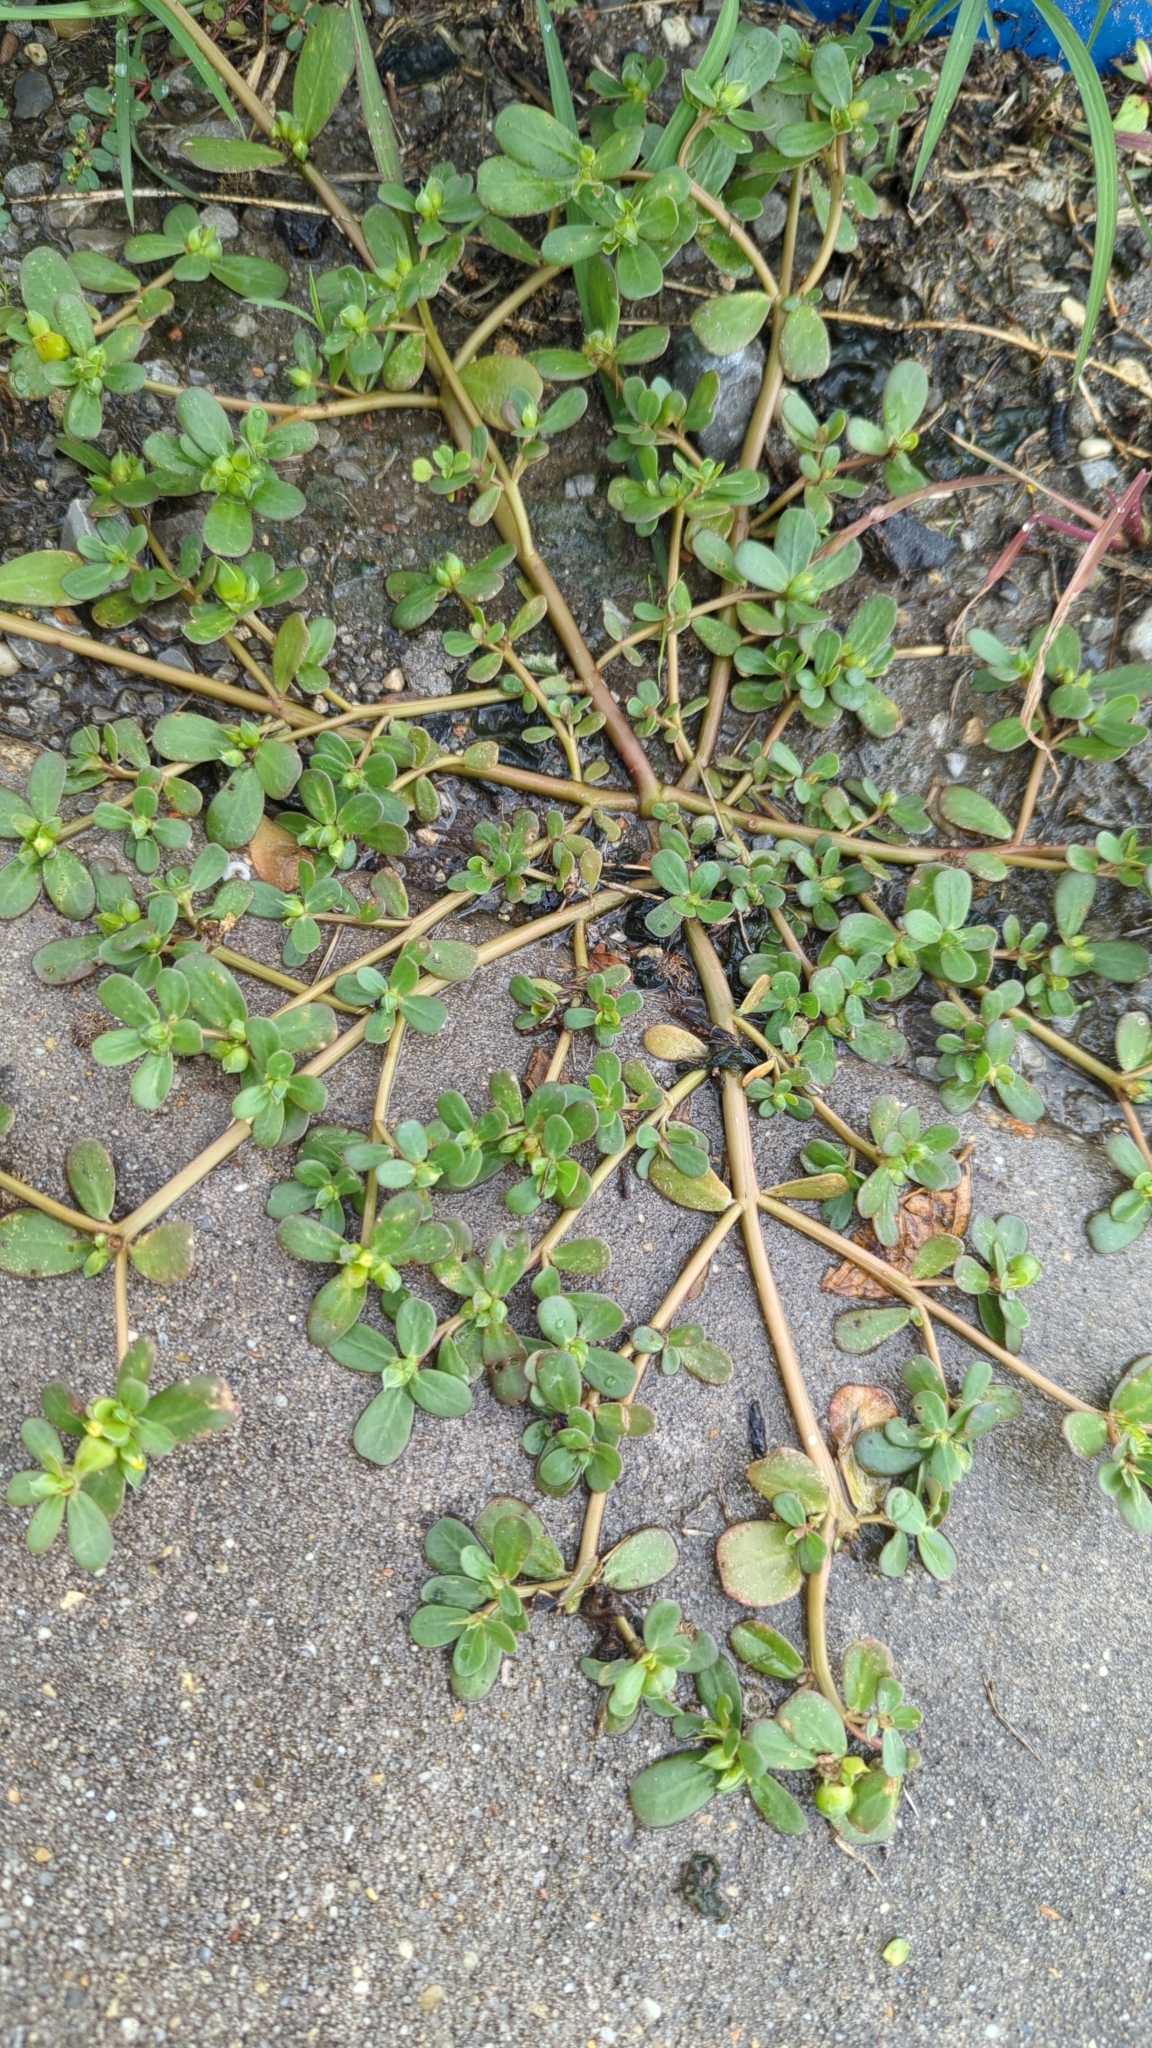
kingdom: Plantae
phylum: Tracheophyta
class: Magnoliopsida
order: Caryophyllales
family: Portulacaceae
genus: Portulaca
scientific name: Portulaca oleracea
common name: Common purslane
